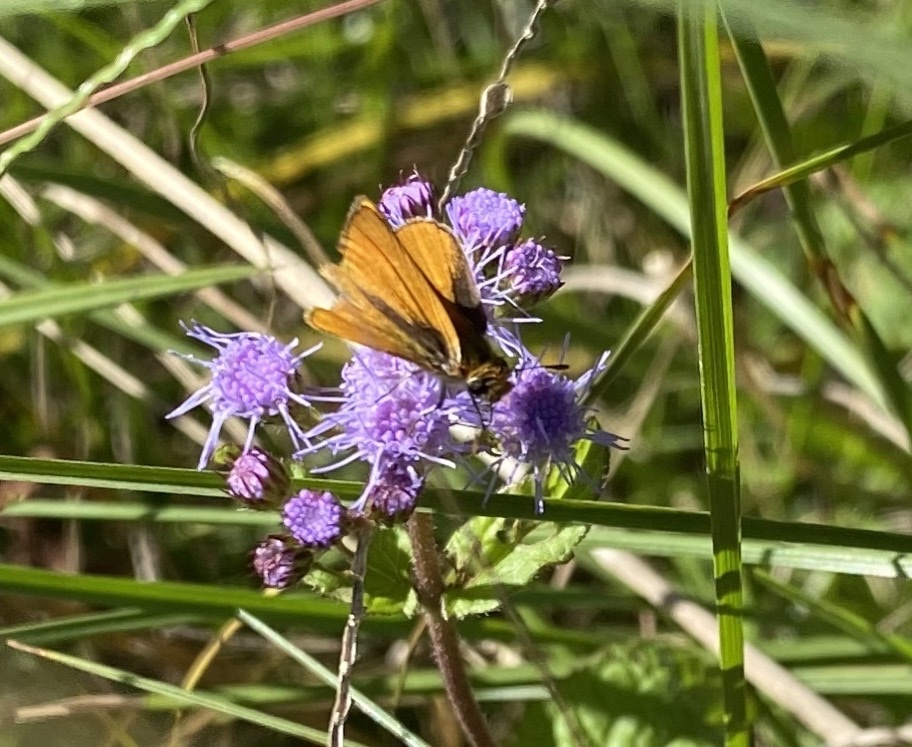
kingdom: Animalia
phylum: Arthropoda
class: Insecta
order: Lepidoptera
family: Hesperiidae
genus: Copaeodes
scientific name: Copaeodes minima
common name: Southern skipperling
